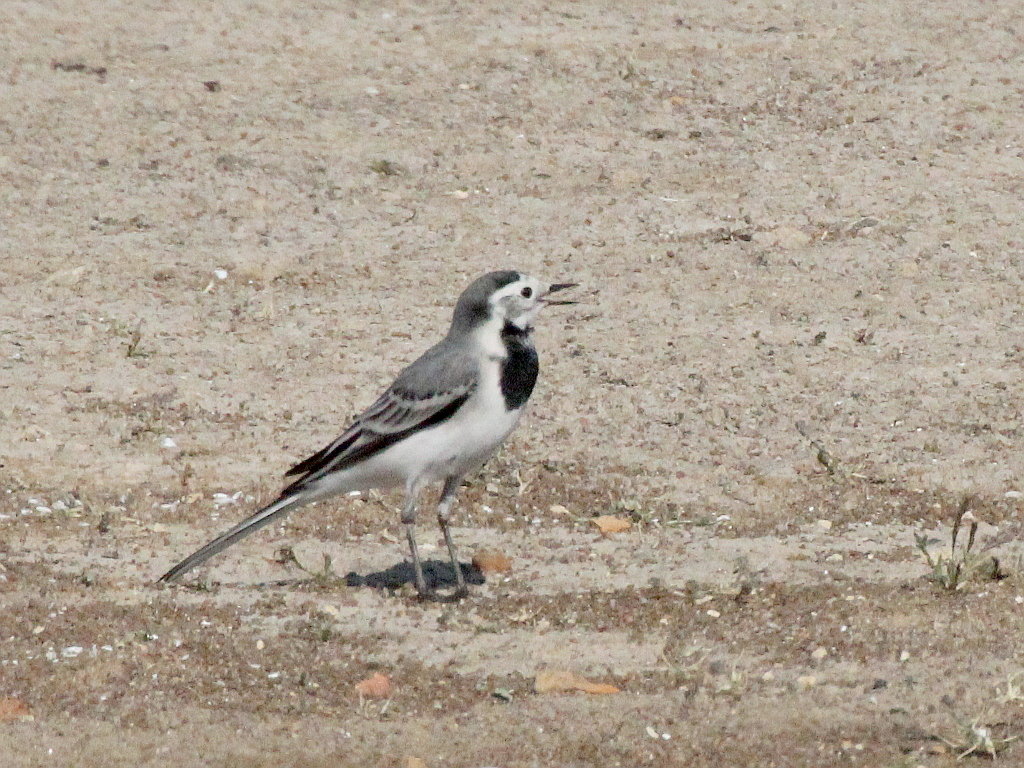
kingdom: Animalia
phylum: Chordata
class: Aves
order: Passeriformes
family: Motacillidae
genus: Motacilla
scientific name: Motacilla alba
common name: White wagtail
